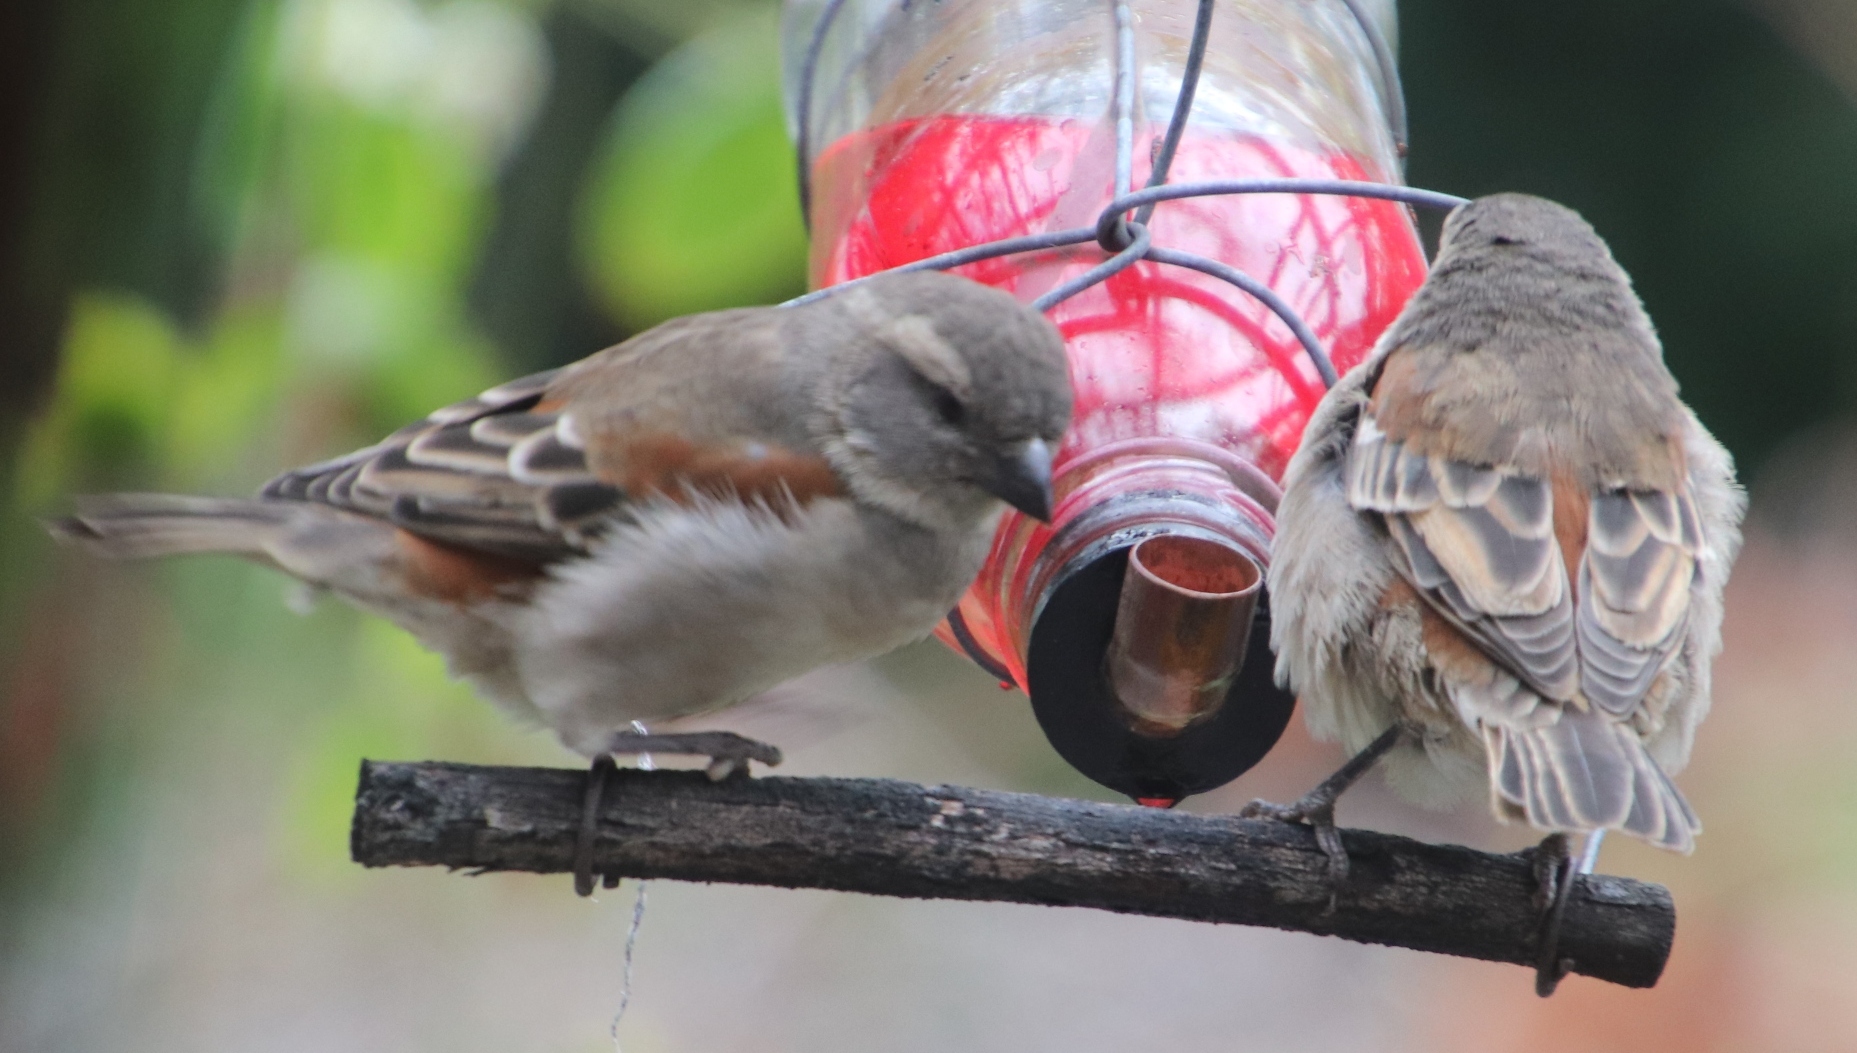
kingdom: Animalia
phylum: Chordata
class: Aves
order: Passeriformes
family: Passeridae
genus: Passer
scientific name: Passer melanurus
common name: Cape sparrow
